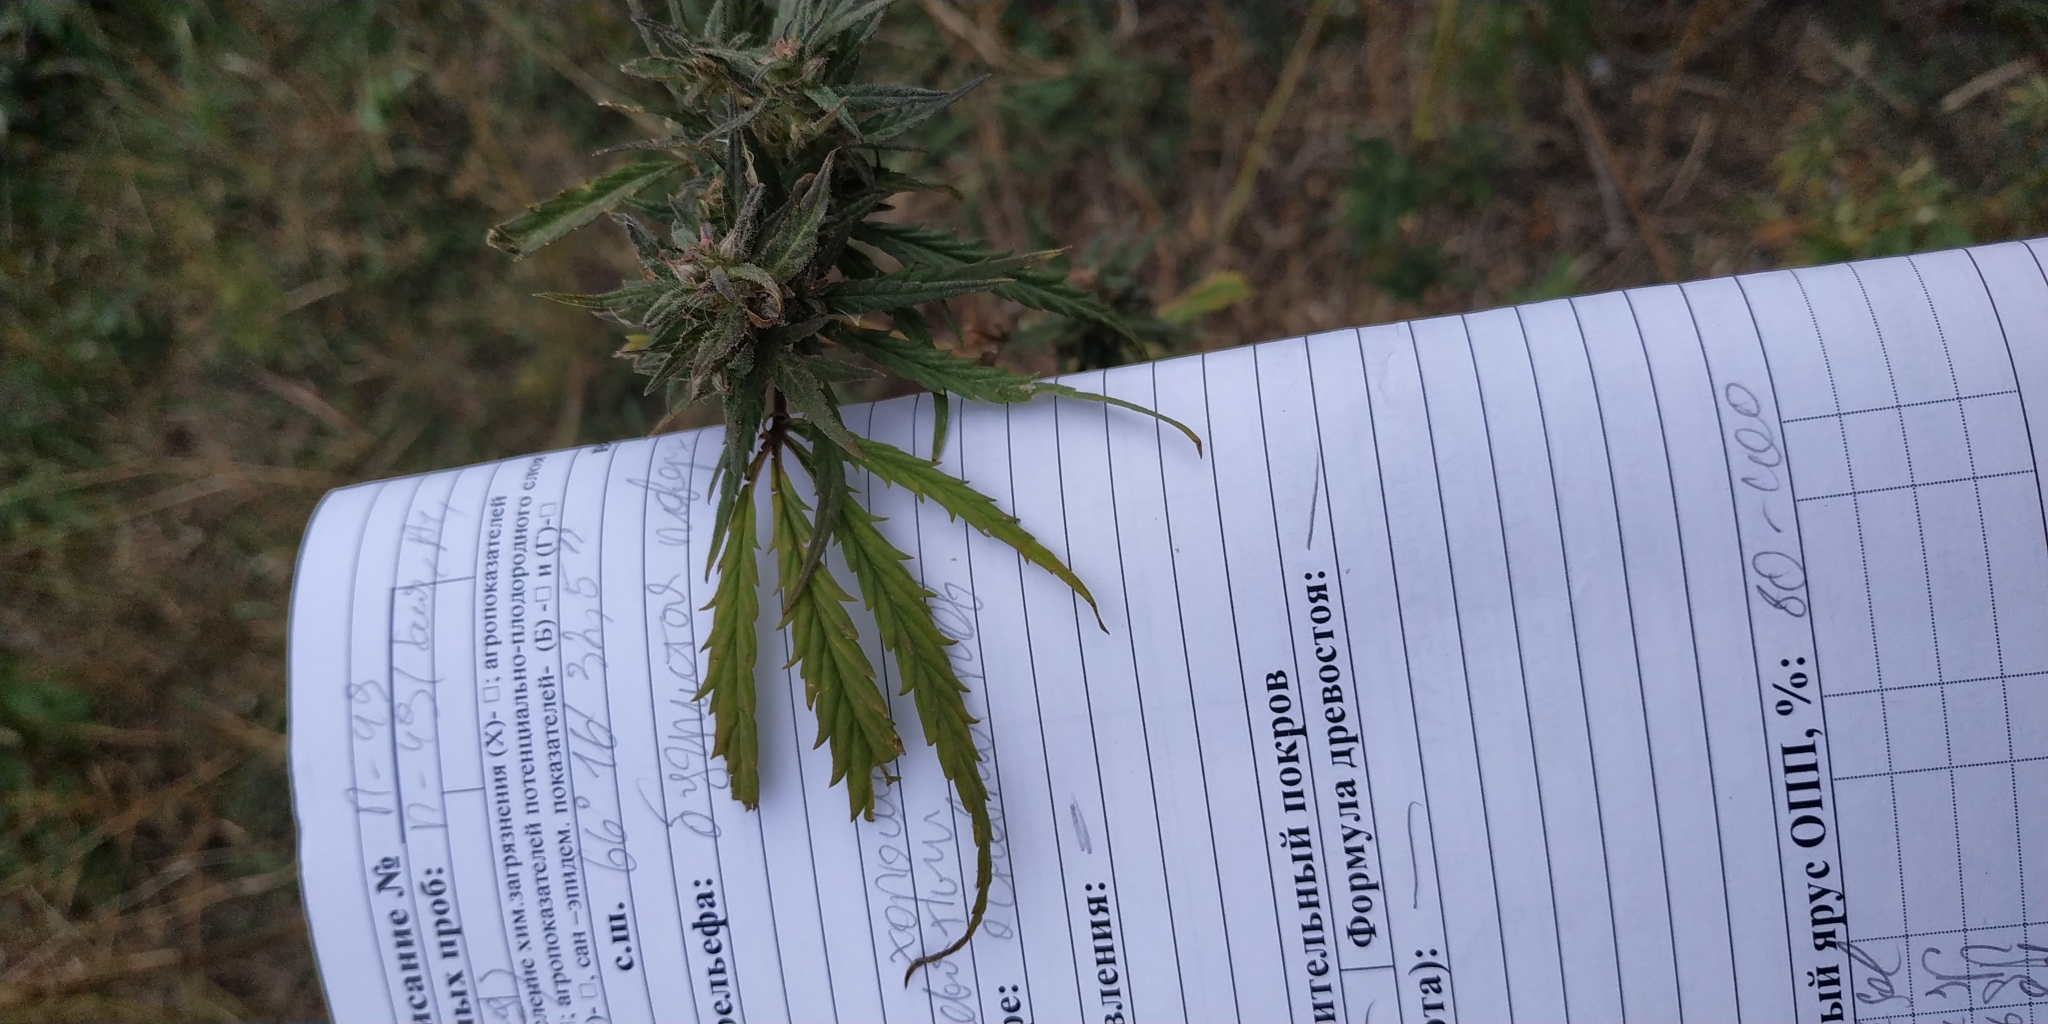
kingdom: Plantae
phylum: Tracheophyta
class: Magnoliopsida
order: Rosales
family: Cannabaceae
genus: Cannabis
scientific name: Cannabis sativa
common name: Hemp
